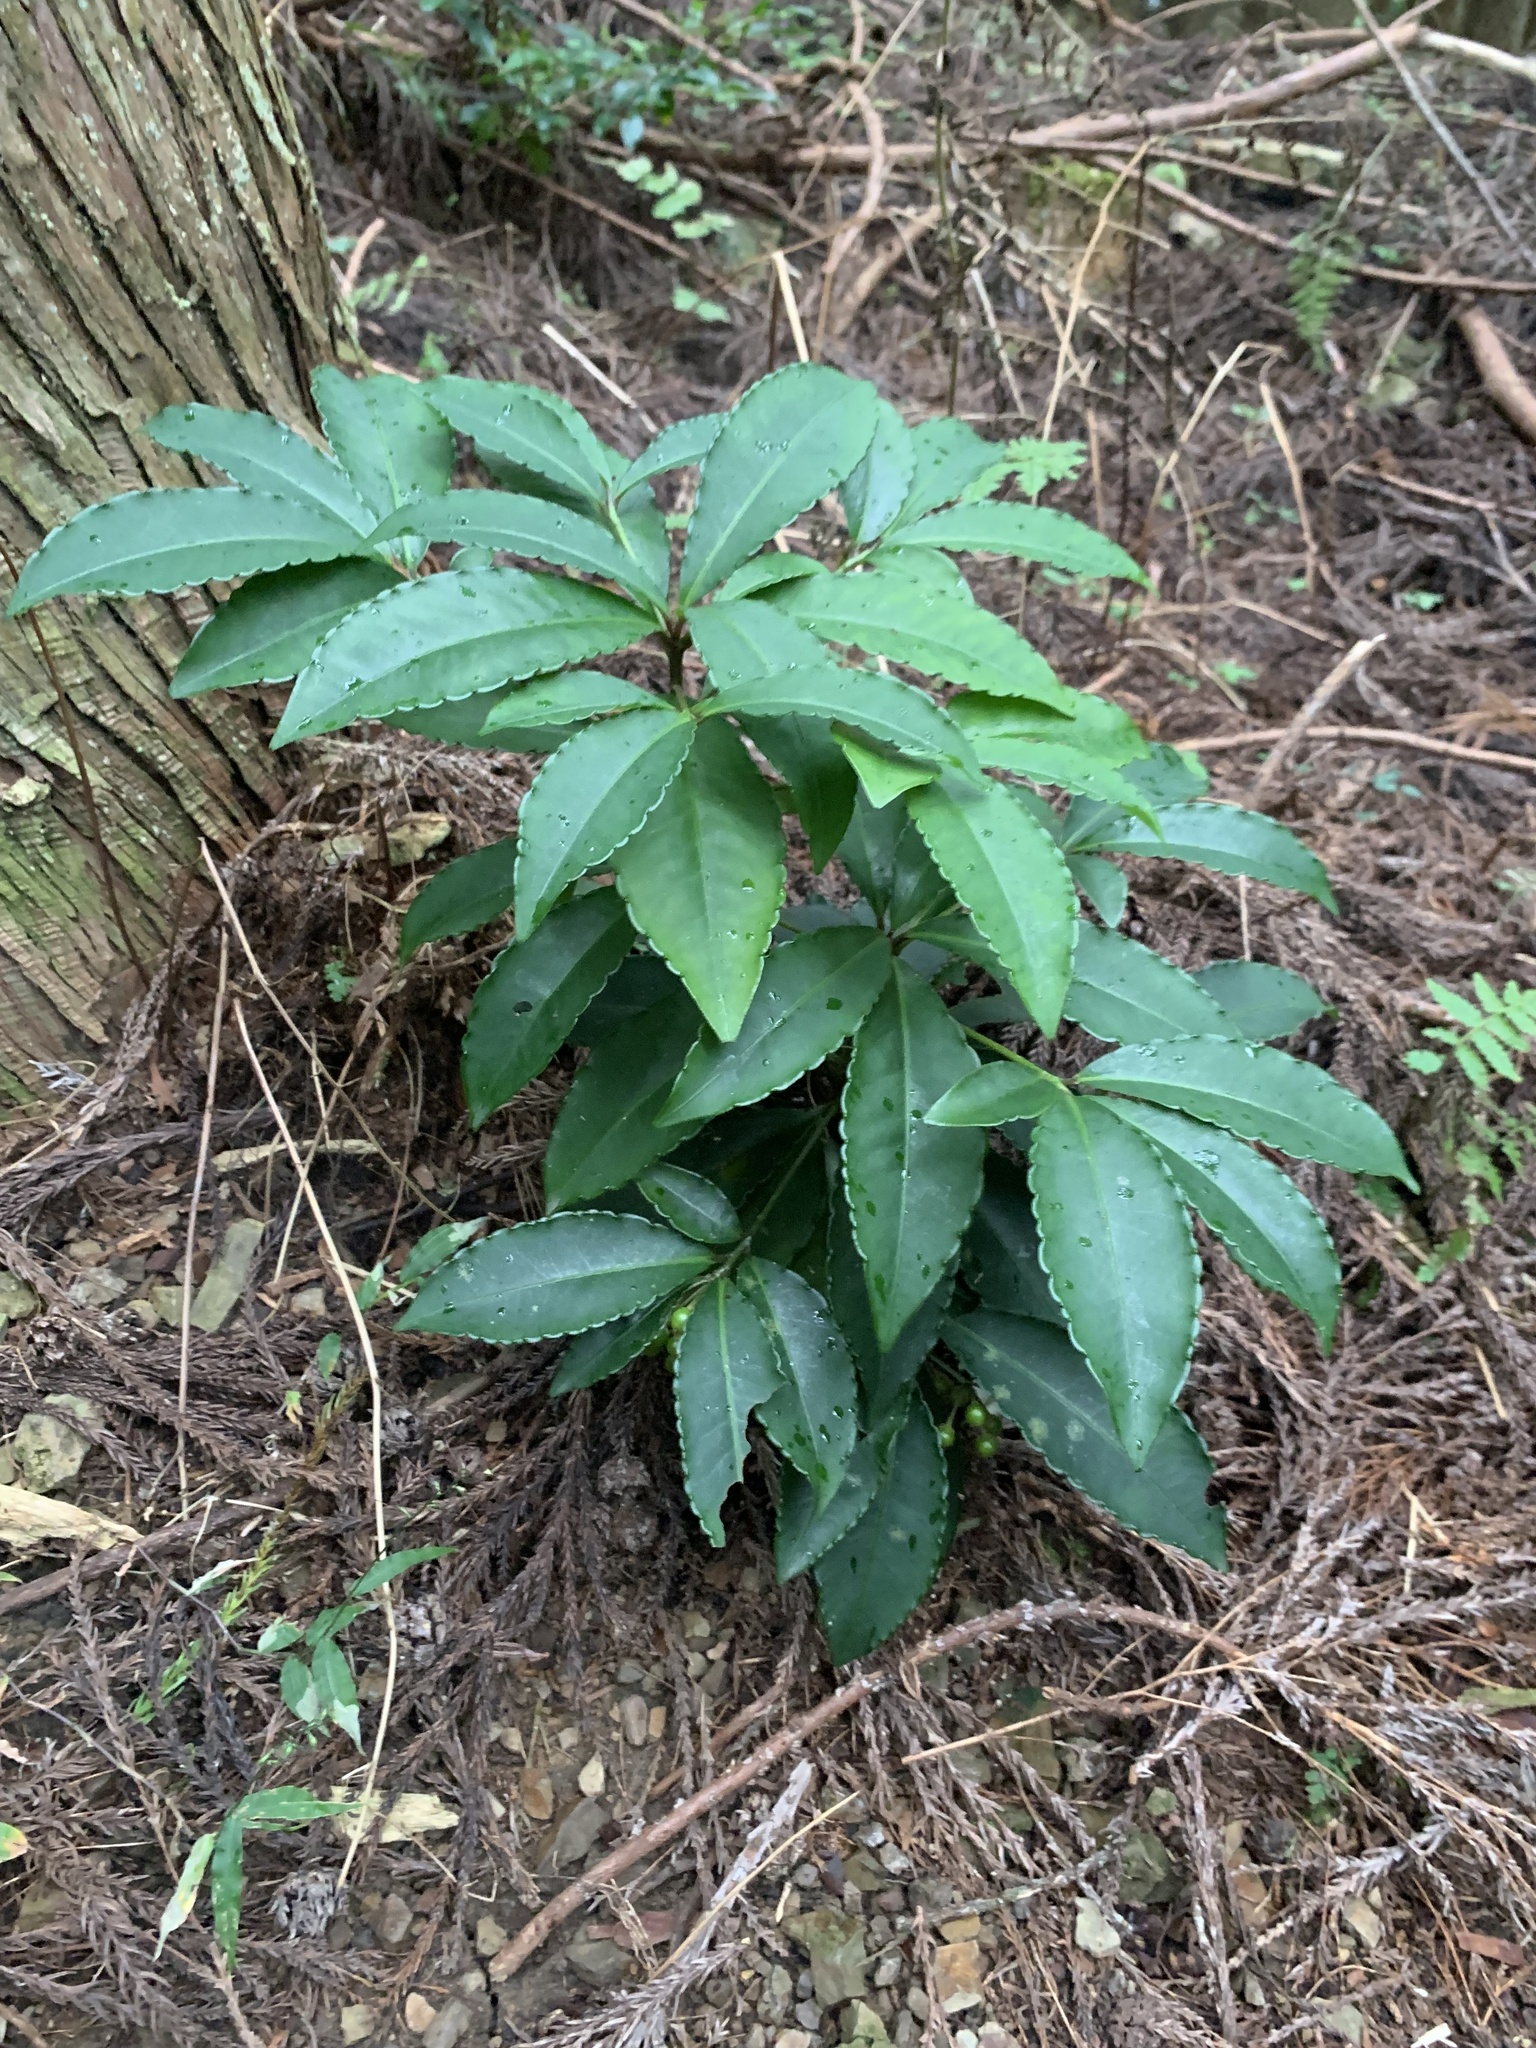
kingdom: Plantae
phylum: Tracheophyta
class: Magnoliopsida
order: Ericales
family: Primulaceae
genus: Ardisia
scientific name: Ardisia crenata
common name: Hen's eyes
